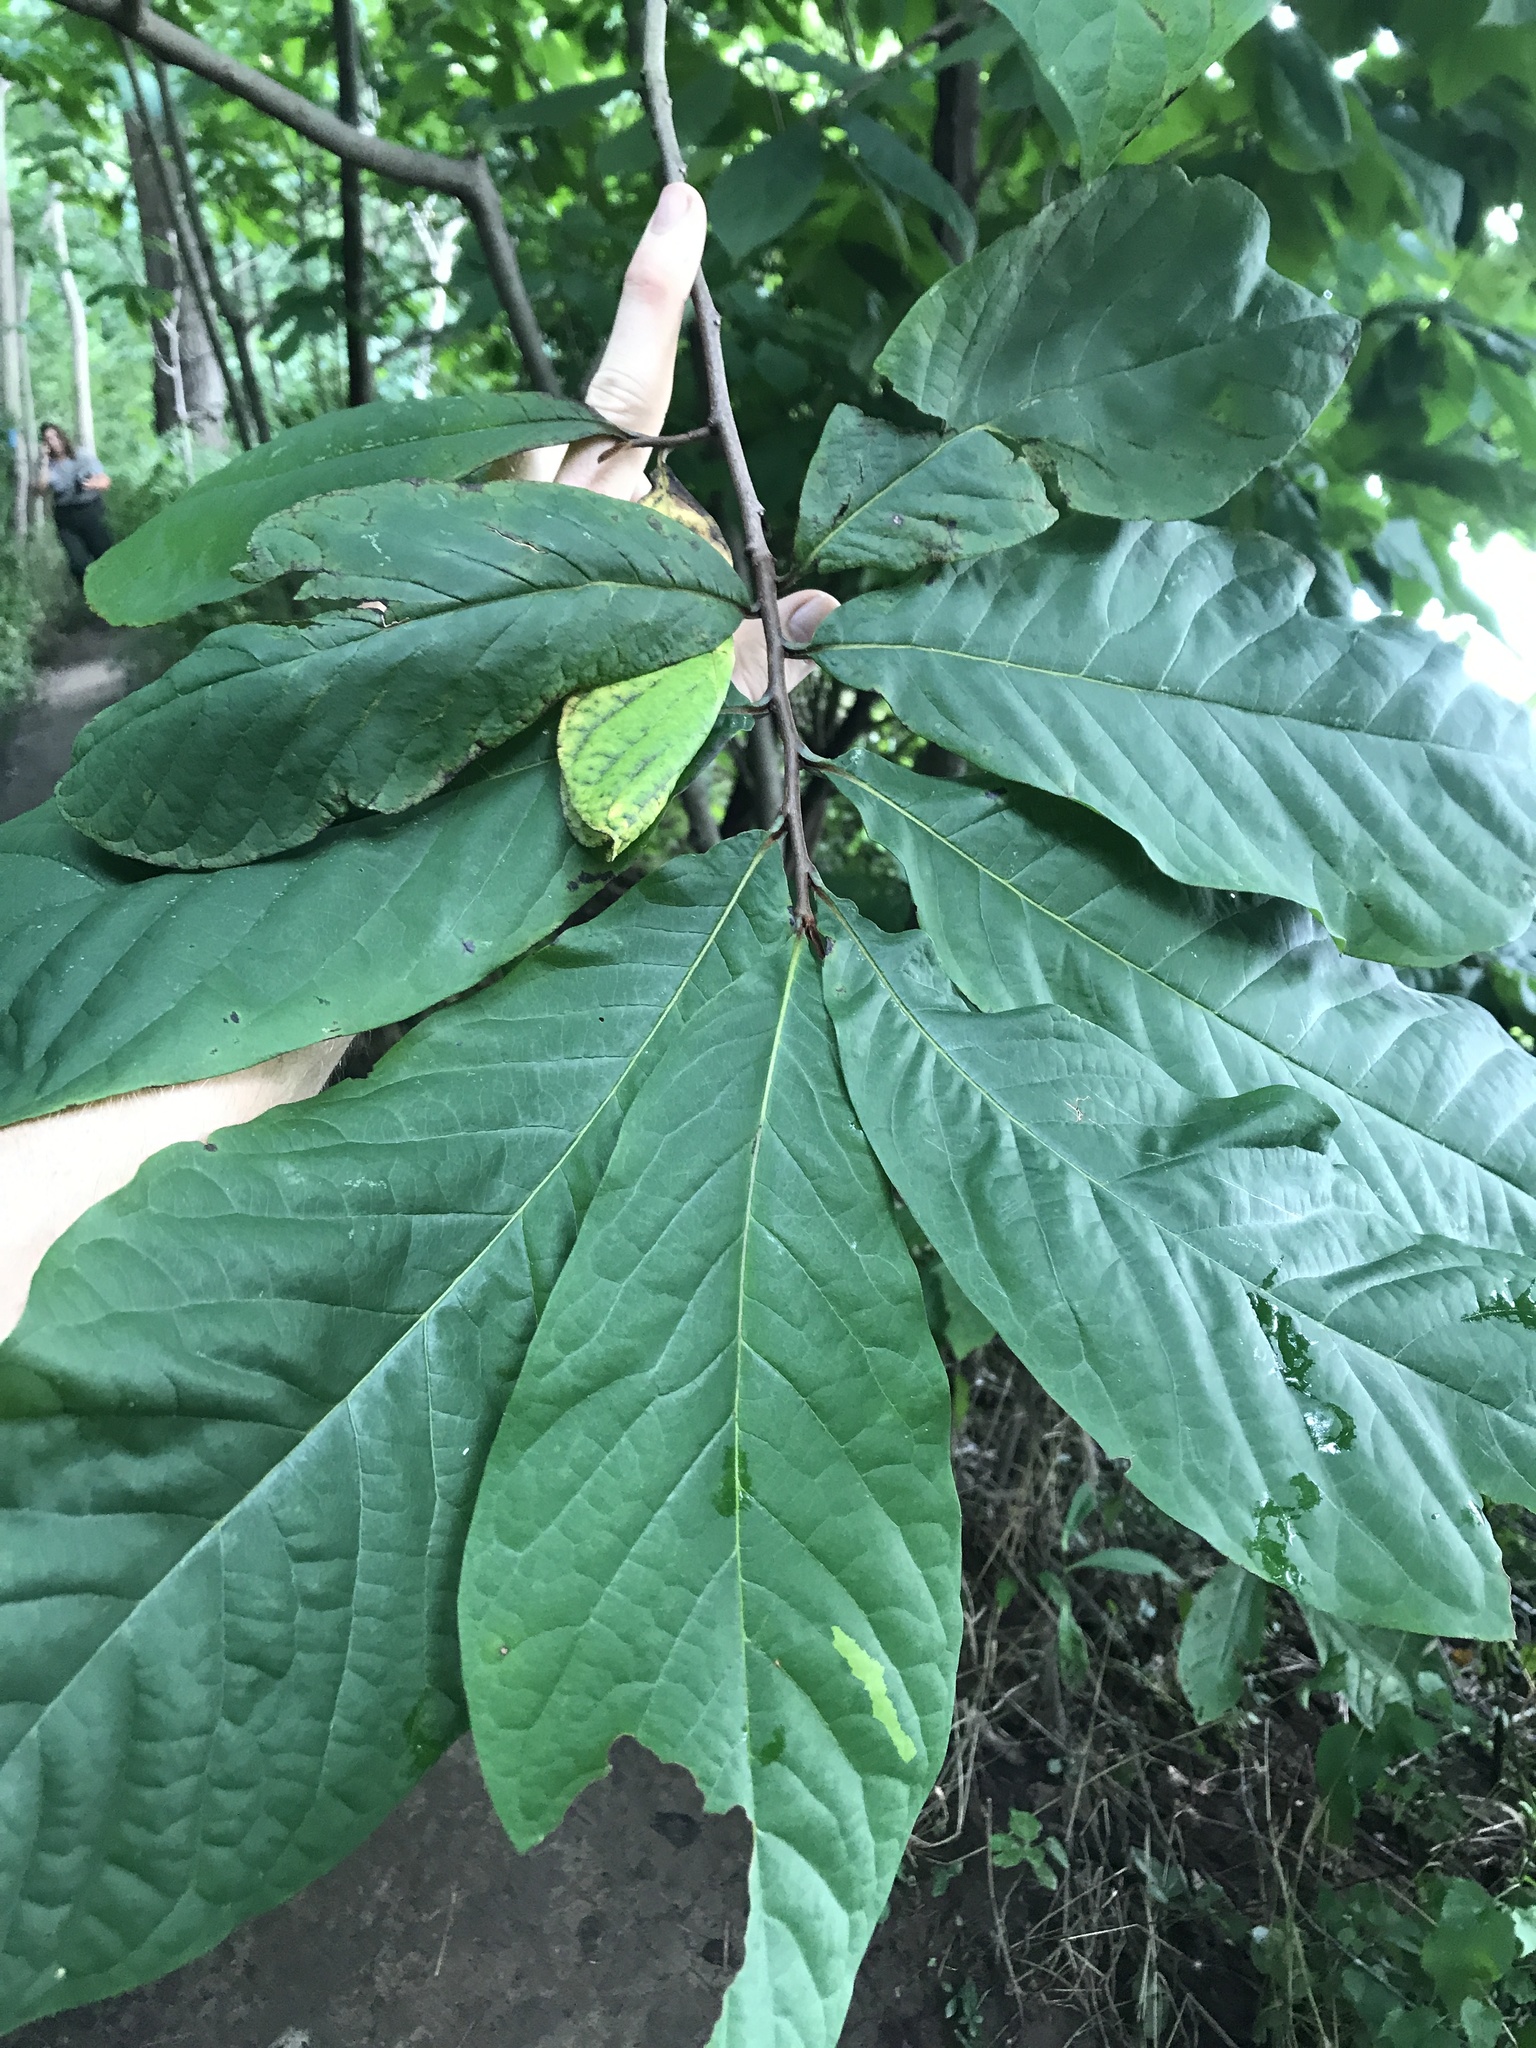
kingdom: Plantae
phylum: Tracheophyta
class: Magnoliopsida
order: Magnoliales
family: Annonaceae
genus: Asimina
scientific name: Asimina triloba
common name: Dog-banana
